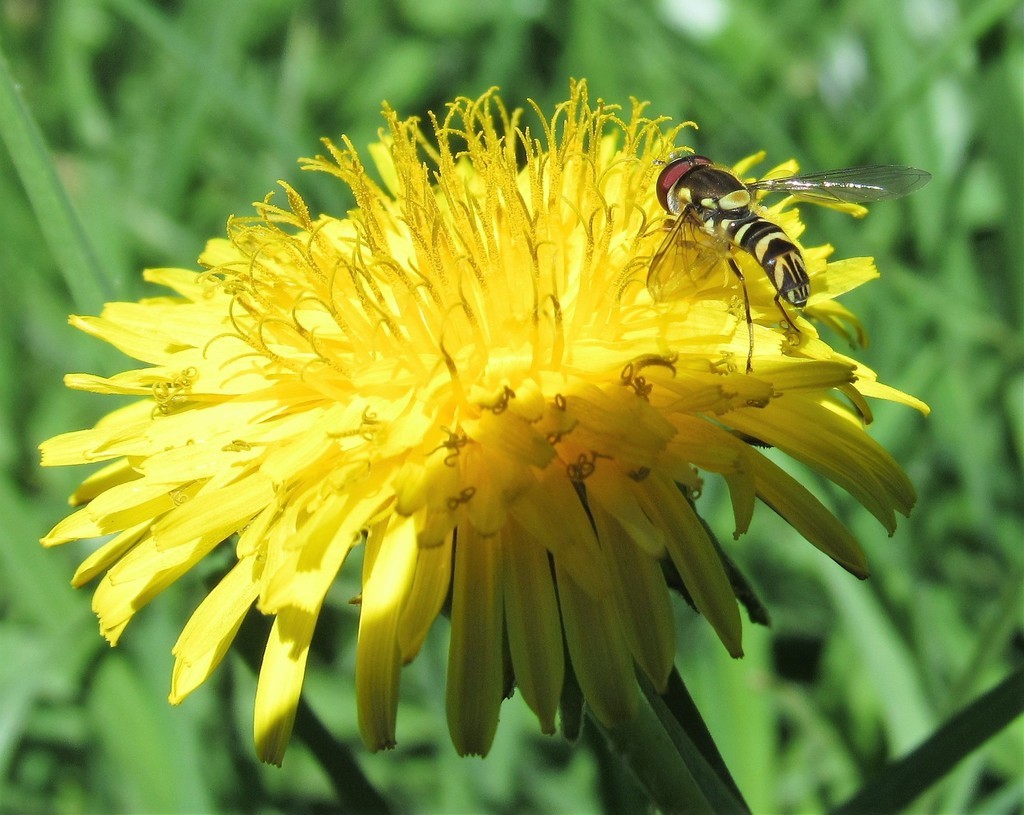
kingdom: Plantae
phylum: Tracheophyta
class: Magnoliopsida
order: Asterales
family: Asteraceae
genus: Taraxacum
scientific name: Taraxacum officinale
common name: Common dandelion
